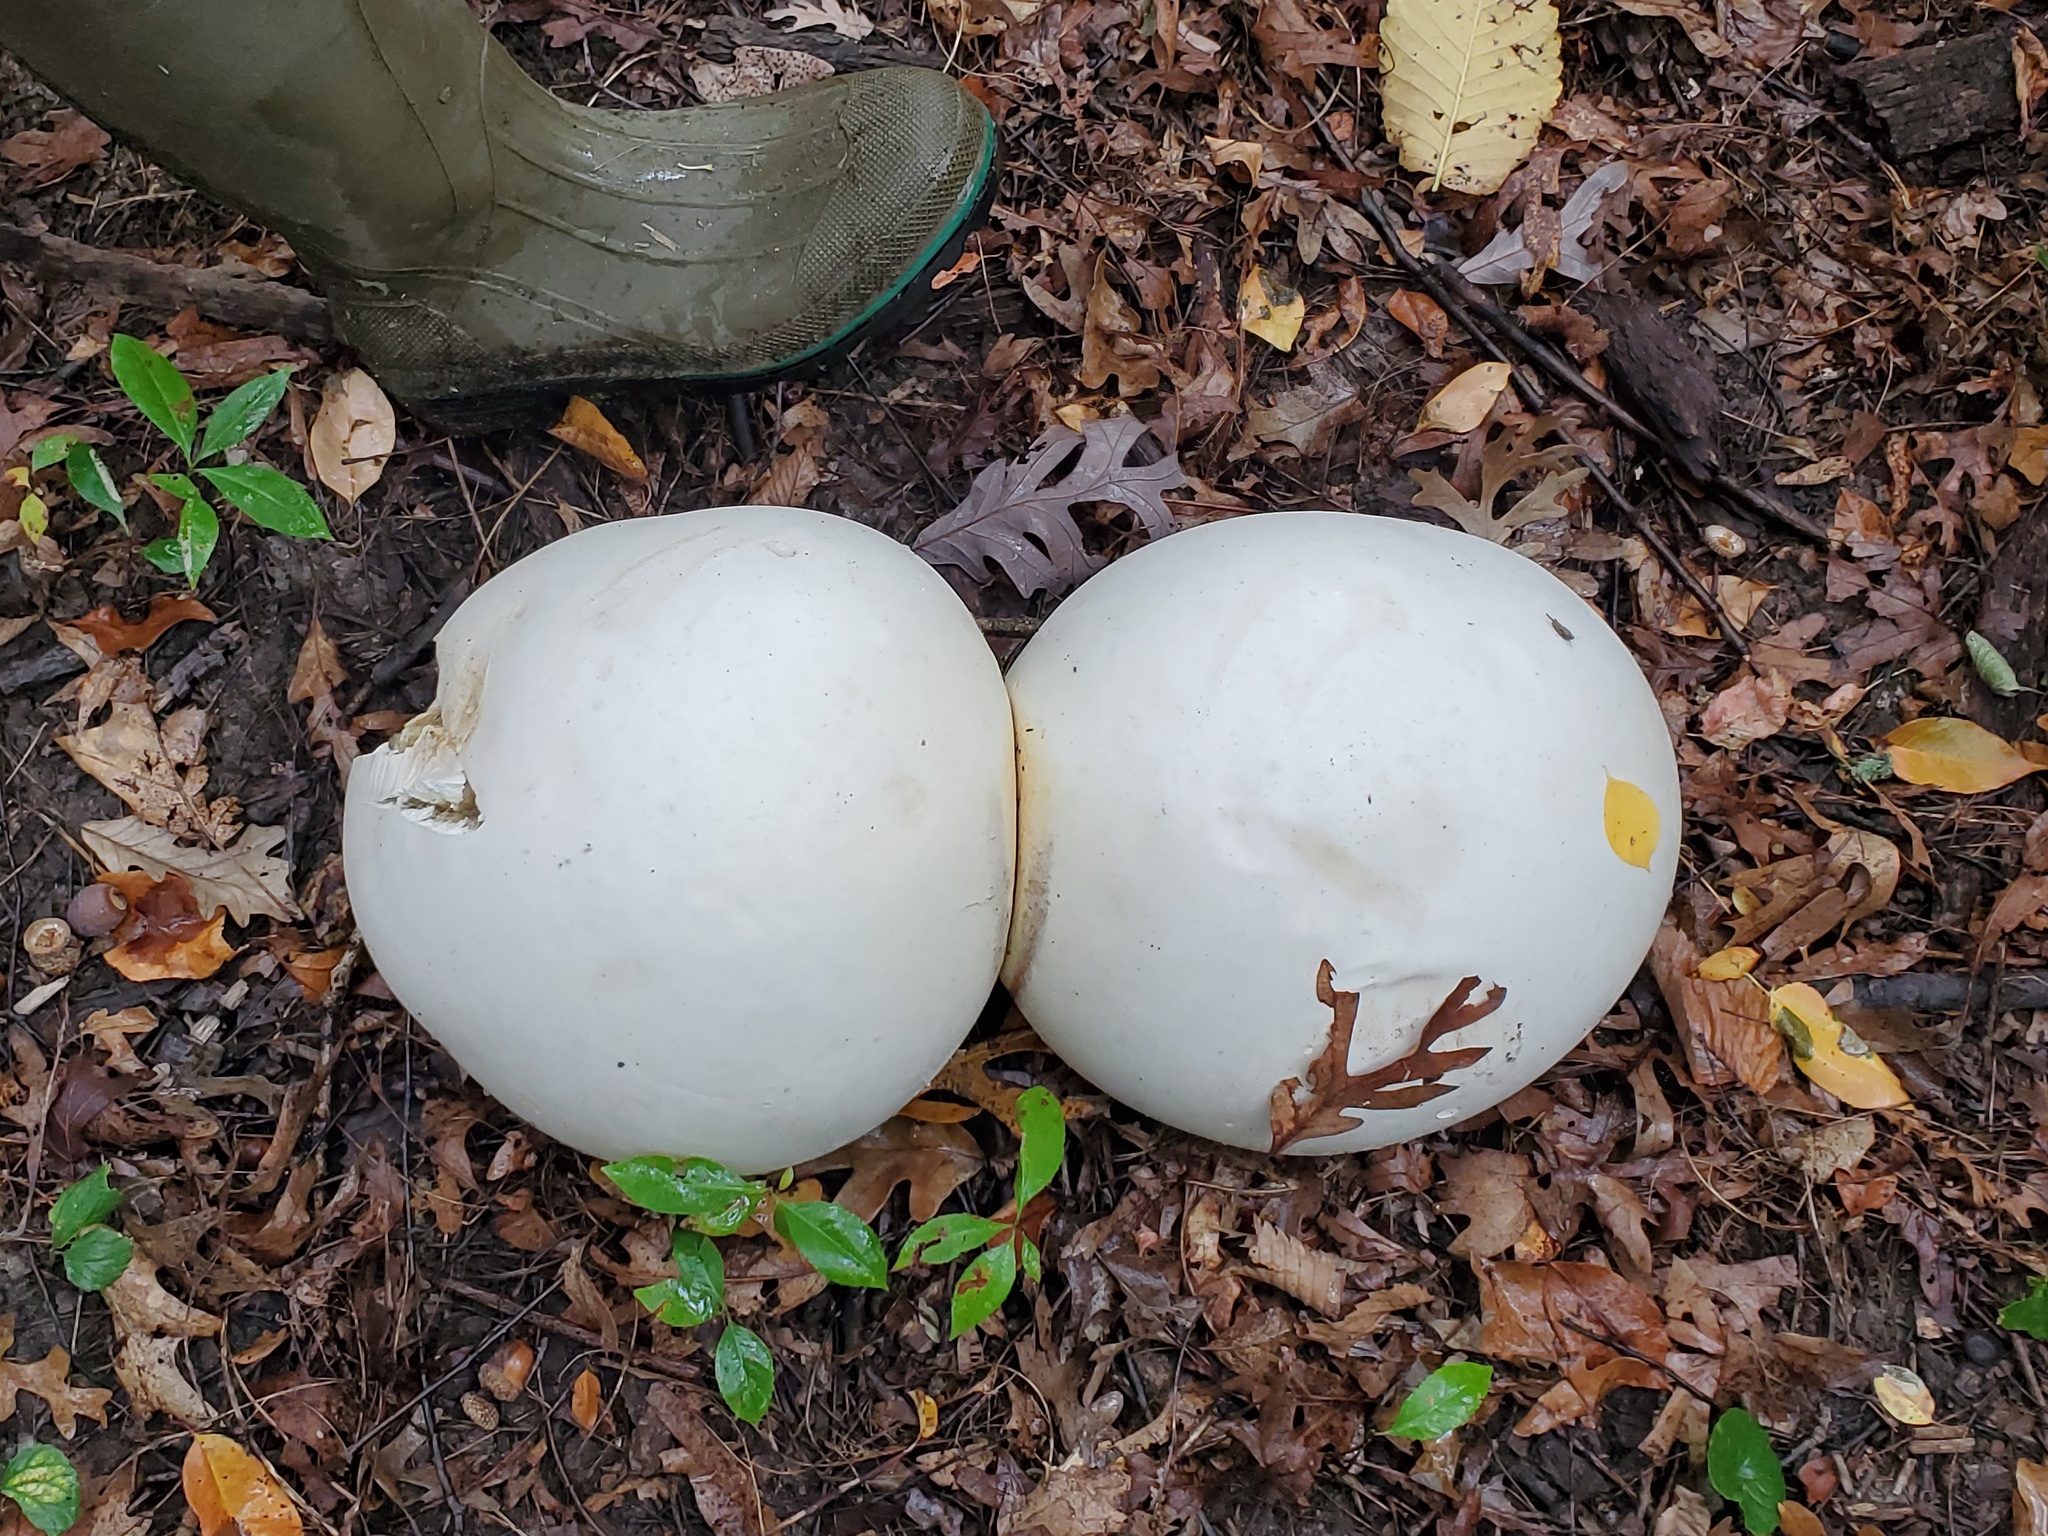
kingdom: Fungi
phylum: Basidiomycota
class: Agaricomycetes
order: Agaricales
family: Lycoperdaceae
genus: Calvatia
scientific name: Calvatia gigantea
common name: Giant puffball
